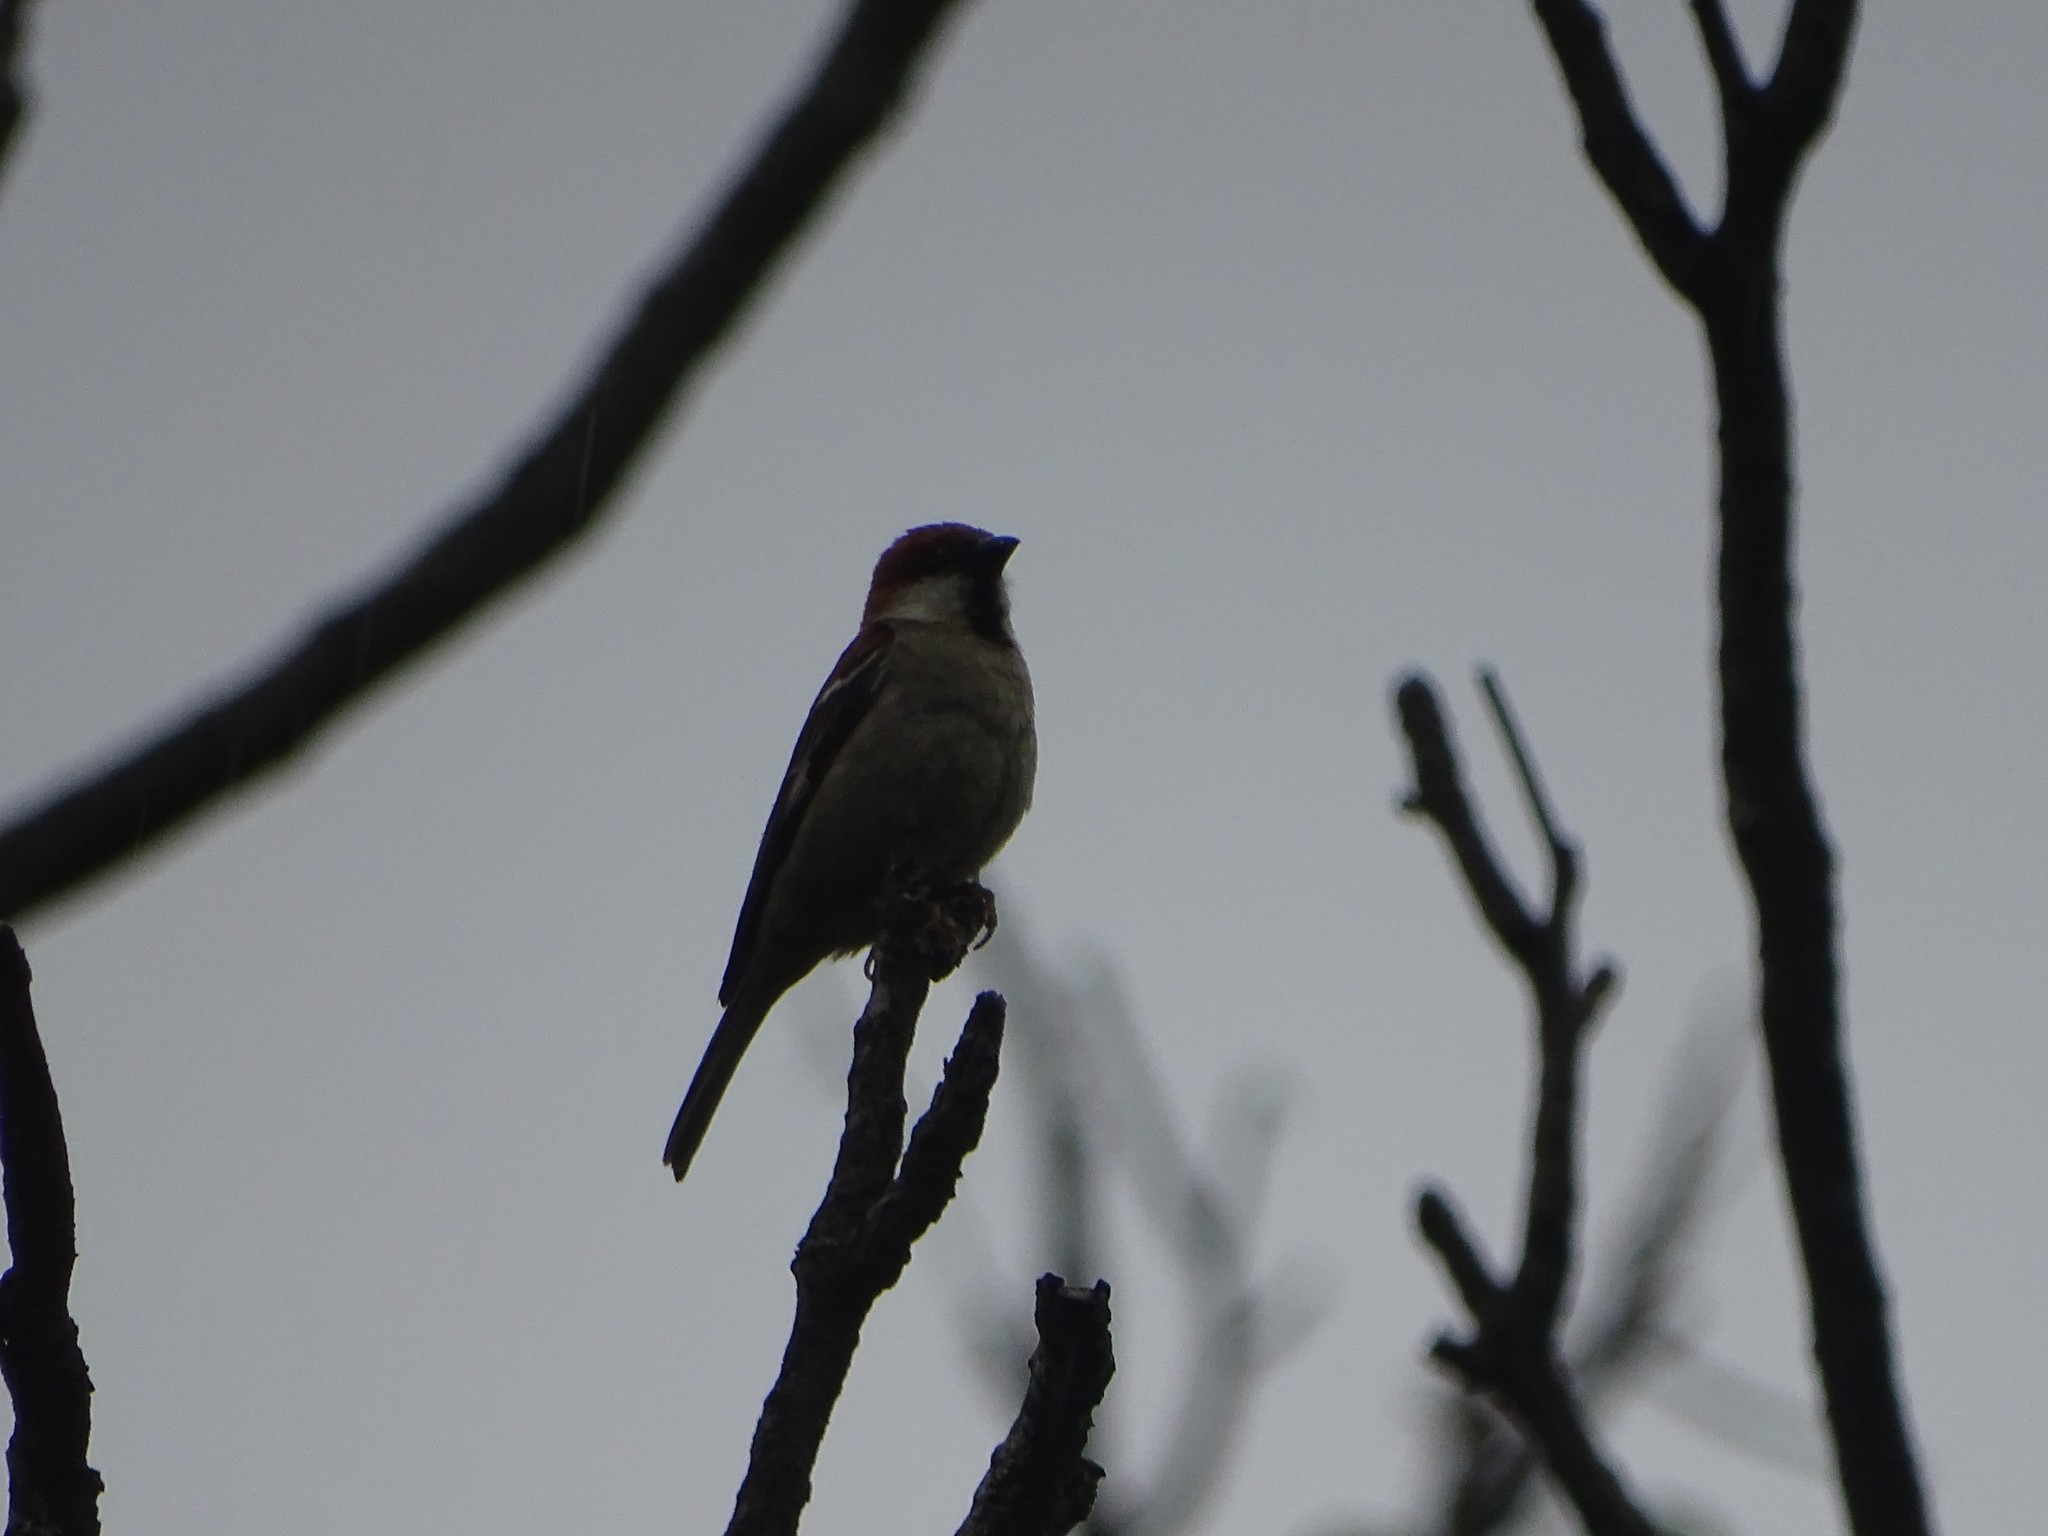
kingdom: Animalia
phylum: Chordata
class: Aves
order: Passeriformes
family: Passeridae
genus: Passer
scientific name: Passer cinnamomeus
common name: Russet sparrow
